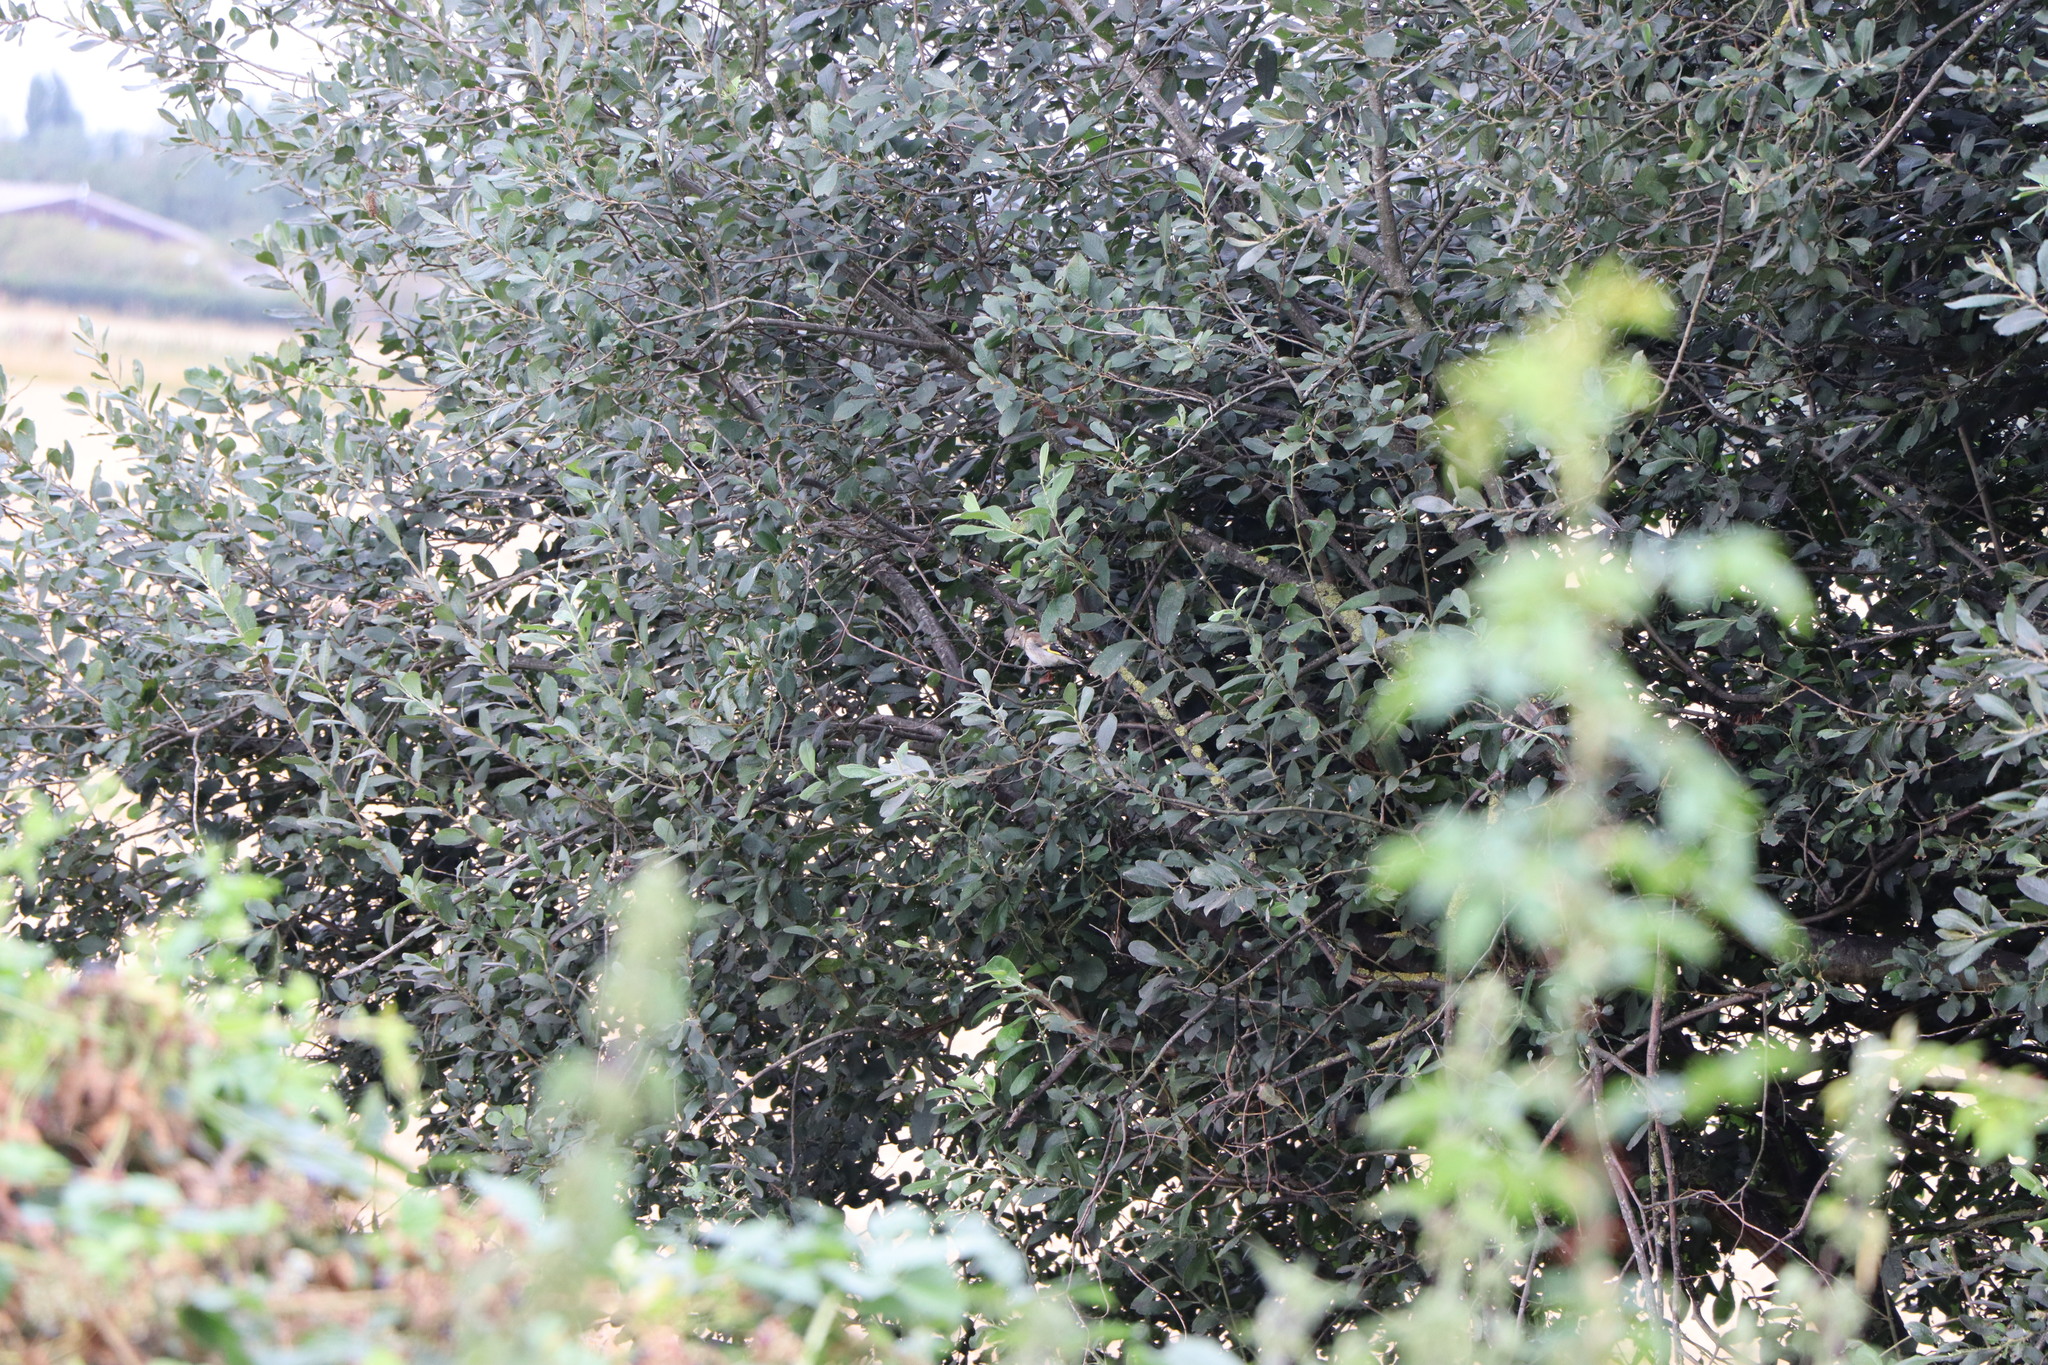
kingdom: Animalia
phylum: Chordata
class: Aves
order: Passeriformes
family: Fringillidae
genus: Carduelis
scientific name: Carduelis carduelis
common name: European goldfinch
